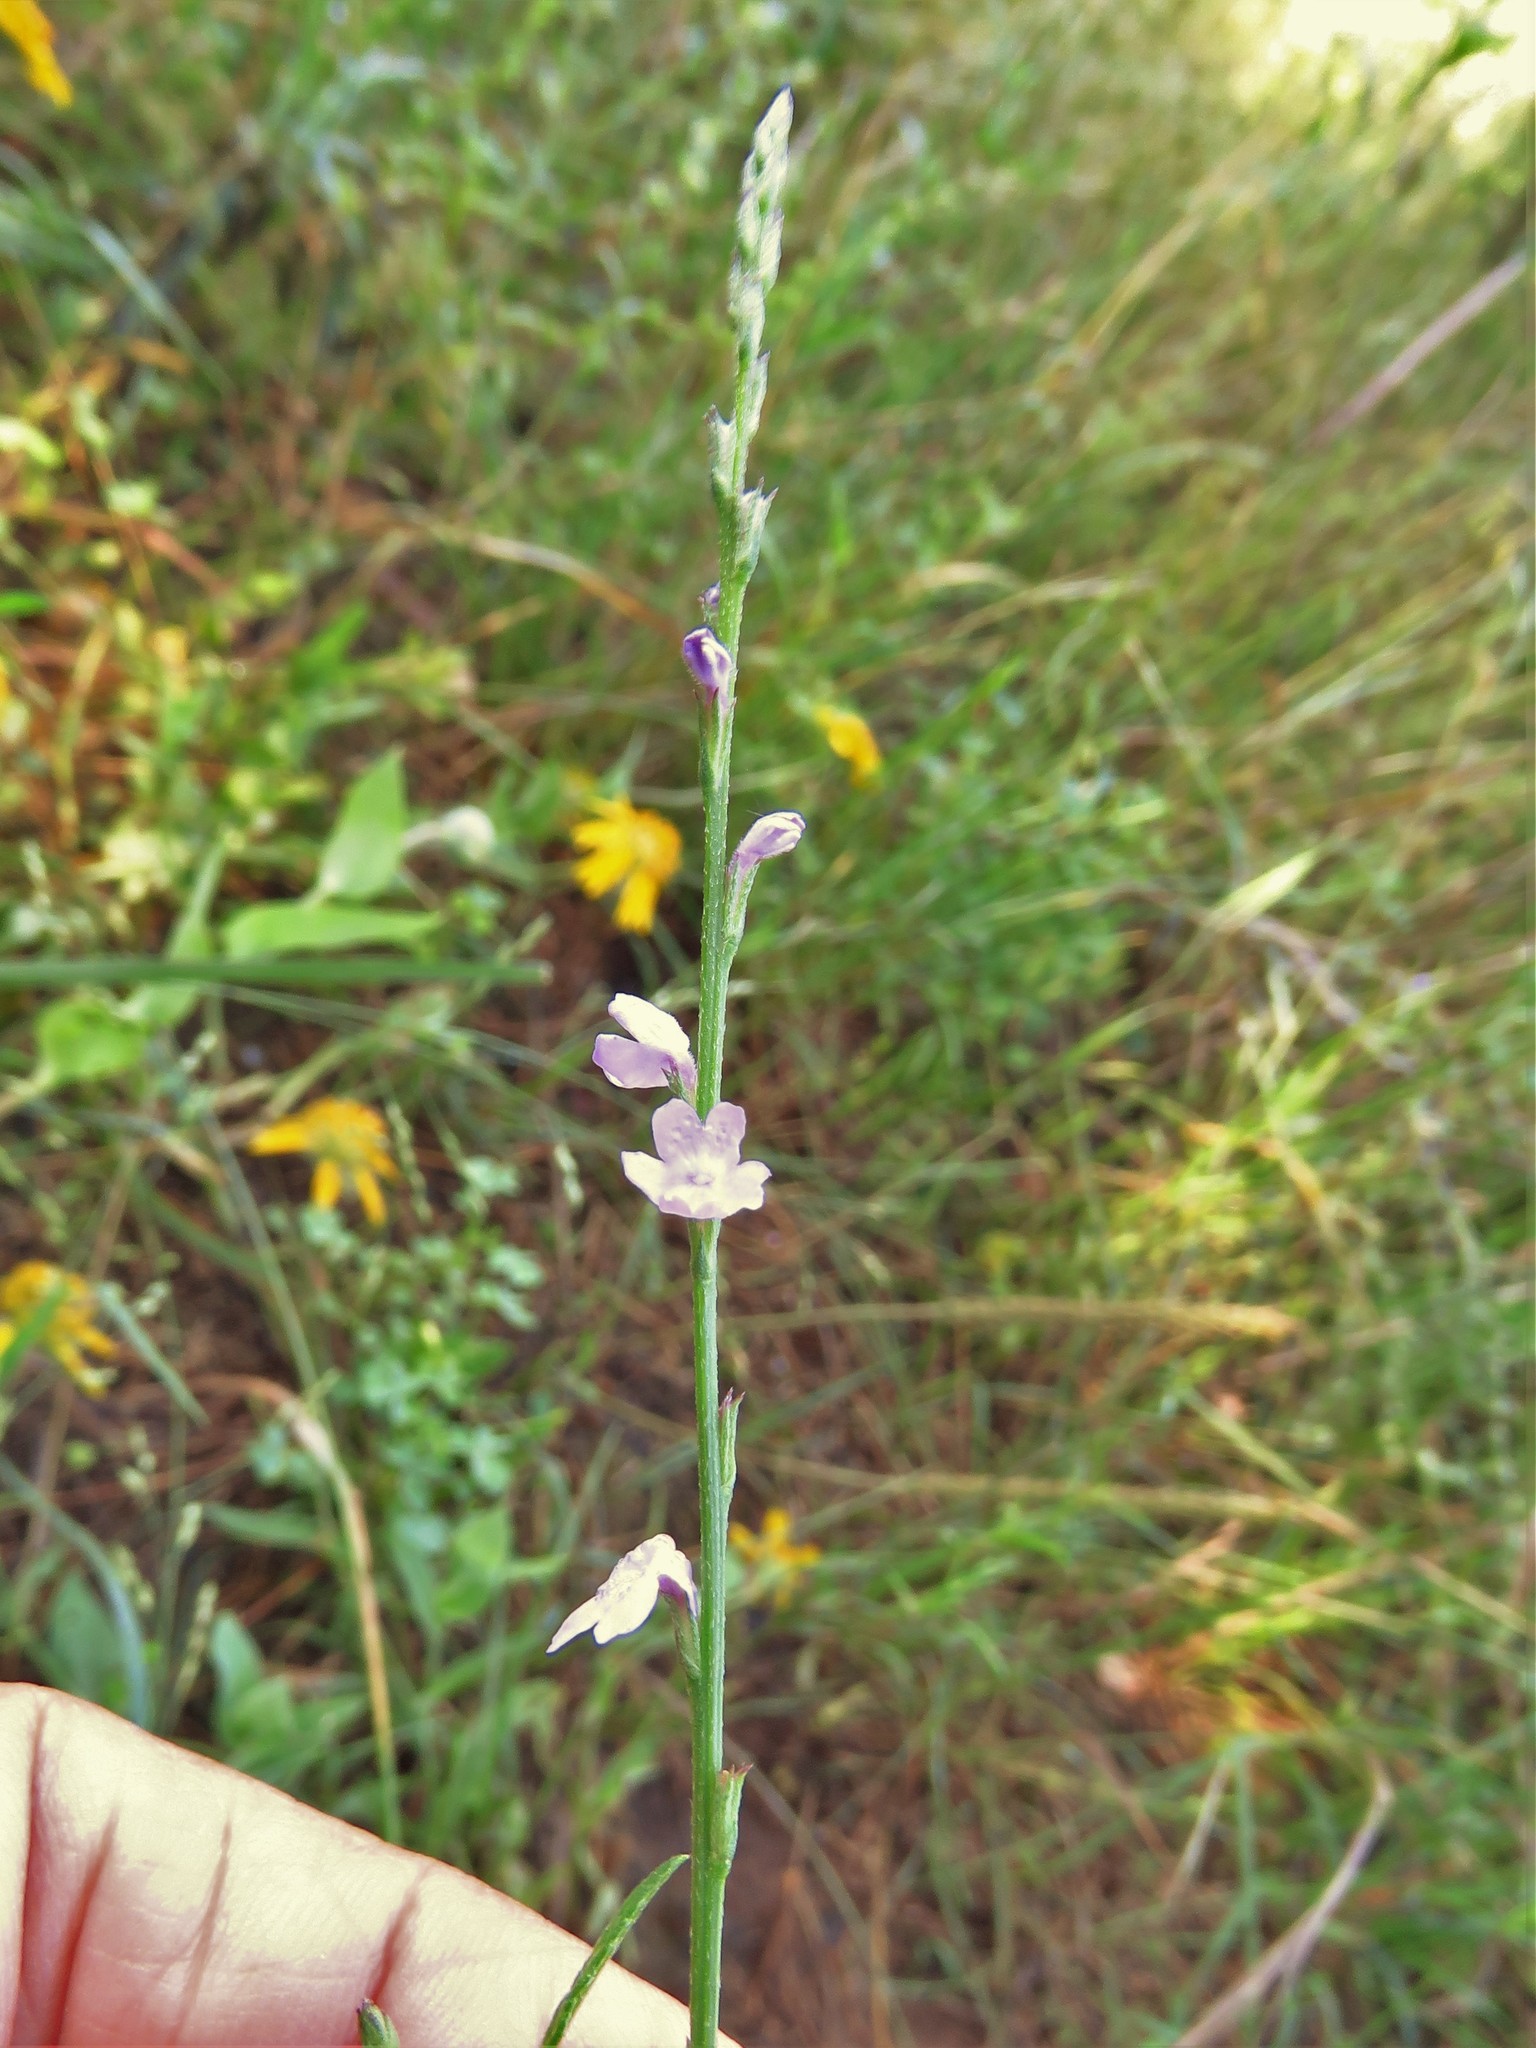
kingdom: Plantae
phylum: Tracheophyta
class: Magnoliopsida
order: Lamiales
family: Verbenaceae
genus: Verbena
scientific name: Verbena halei
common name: Texas vervain
